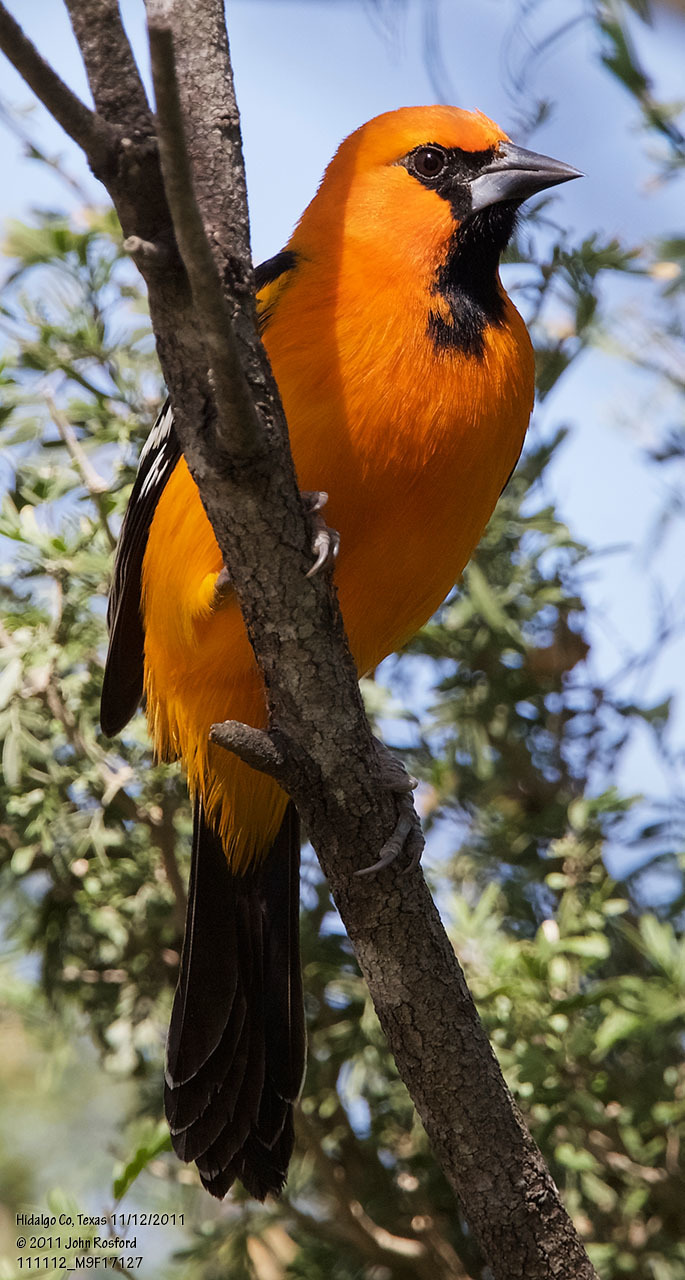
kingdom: Animalia
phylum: Chordata
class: Aves
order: Passeriformes
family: Icteridae
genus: Icterus
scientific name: Icterus gularis
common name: Altamira oriole
